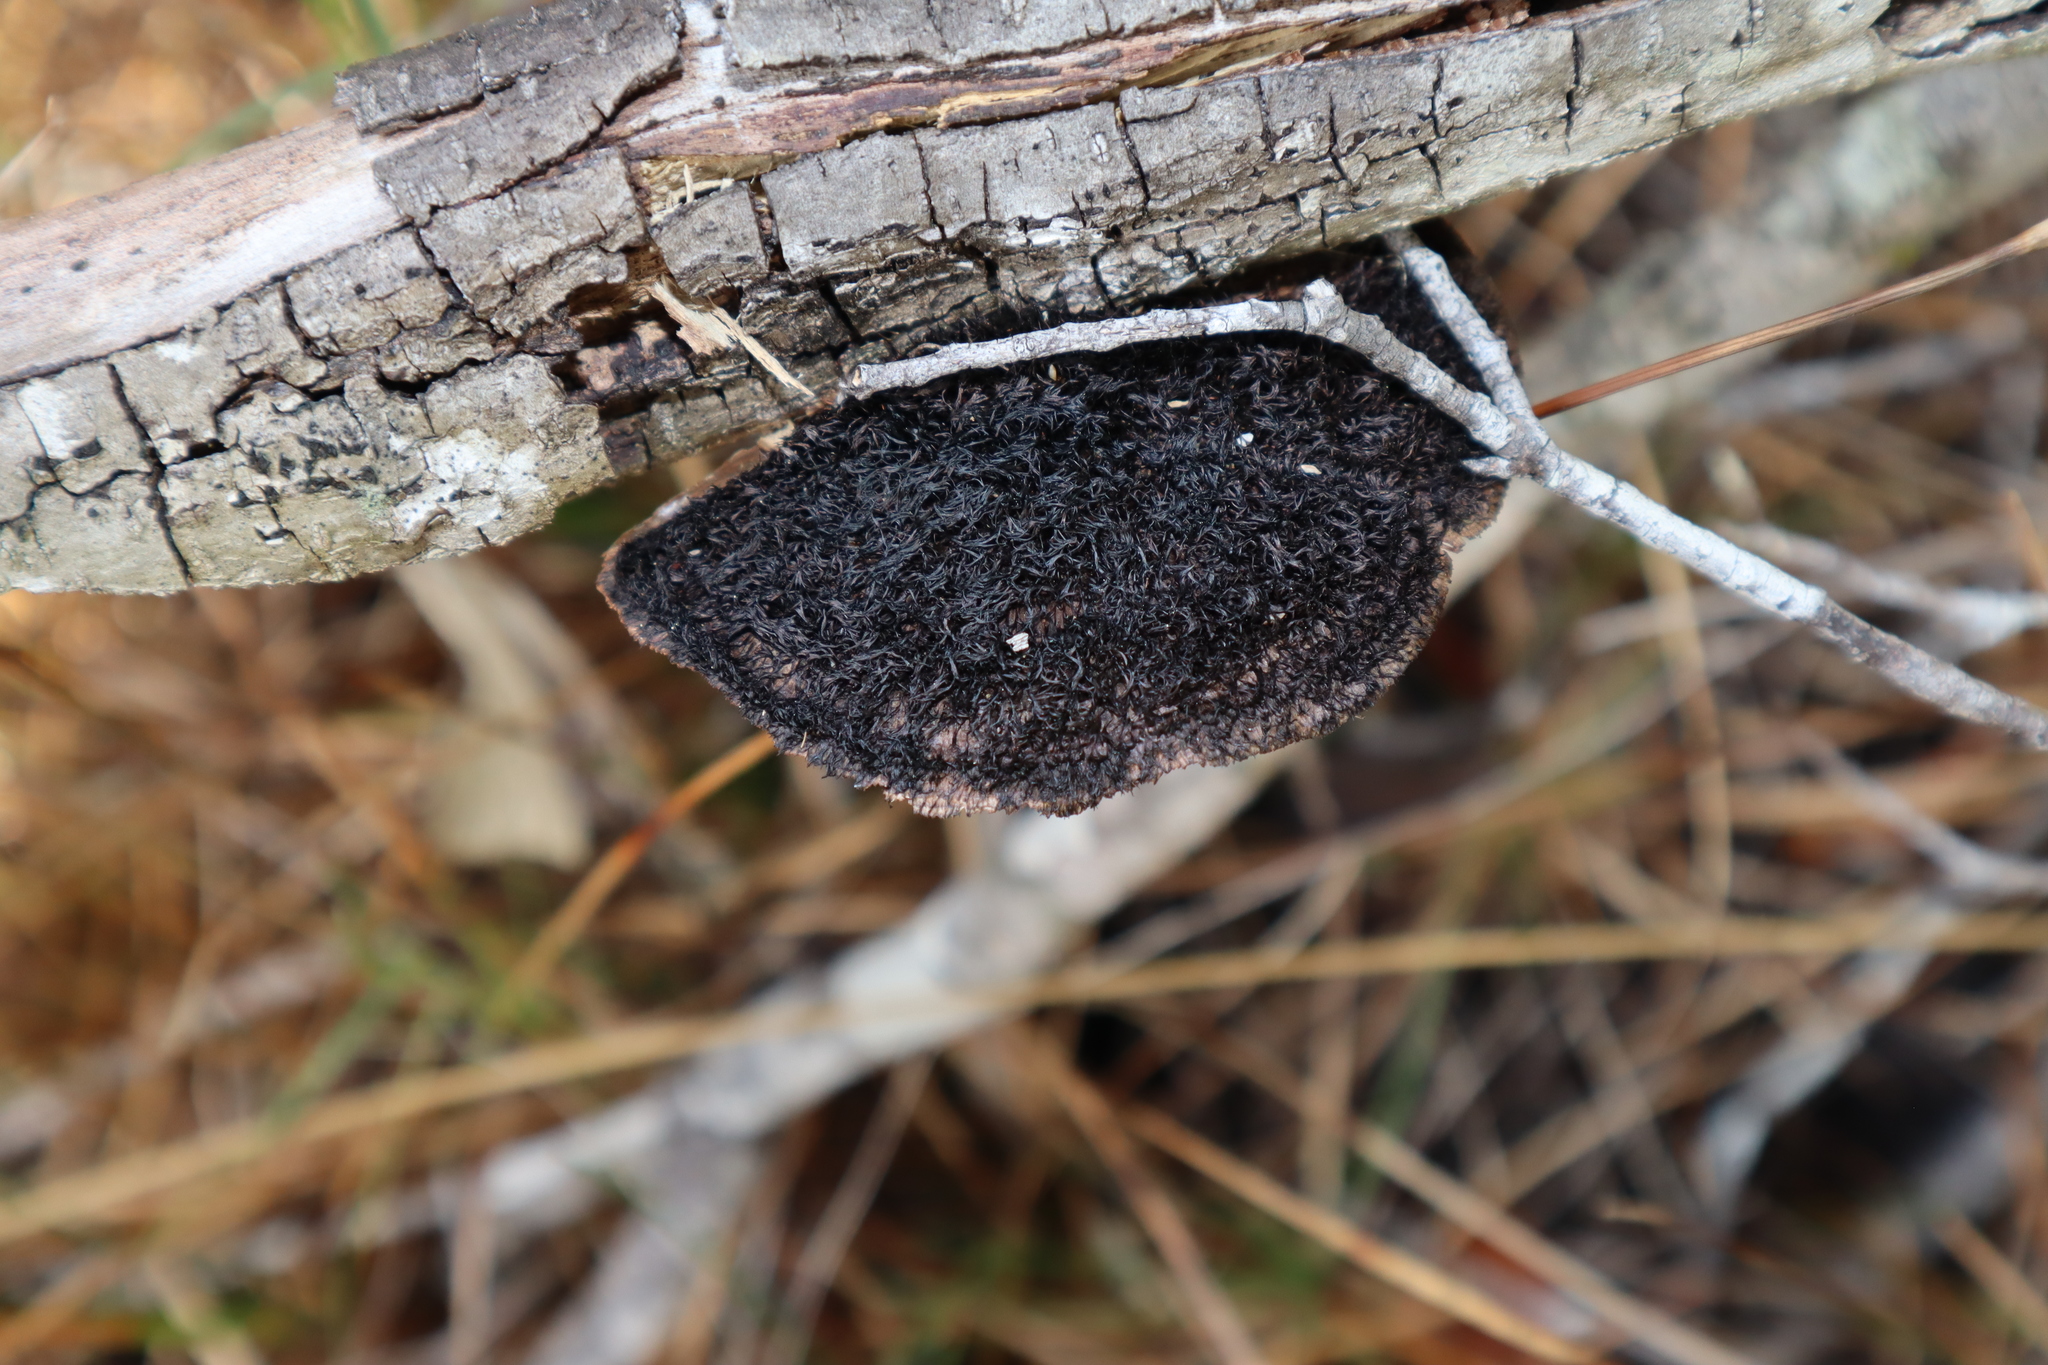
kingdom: Fungi
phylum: Basidiomycota
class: Agaricomycetes
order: Polyporales
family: Cerrenaceae
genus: Cerrena
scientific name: Cerrena hydnoides
